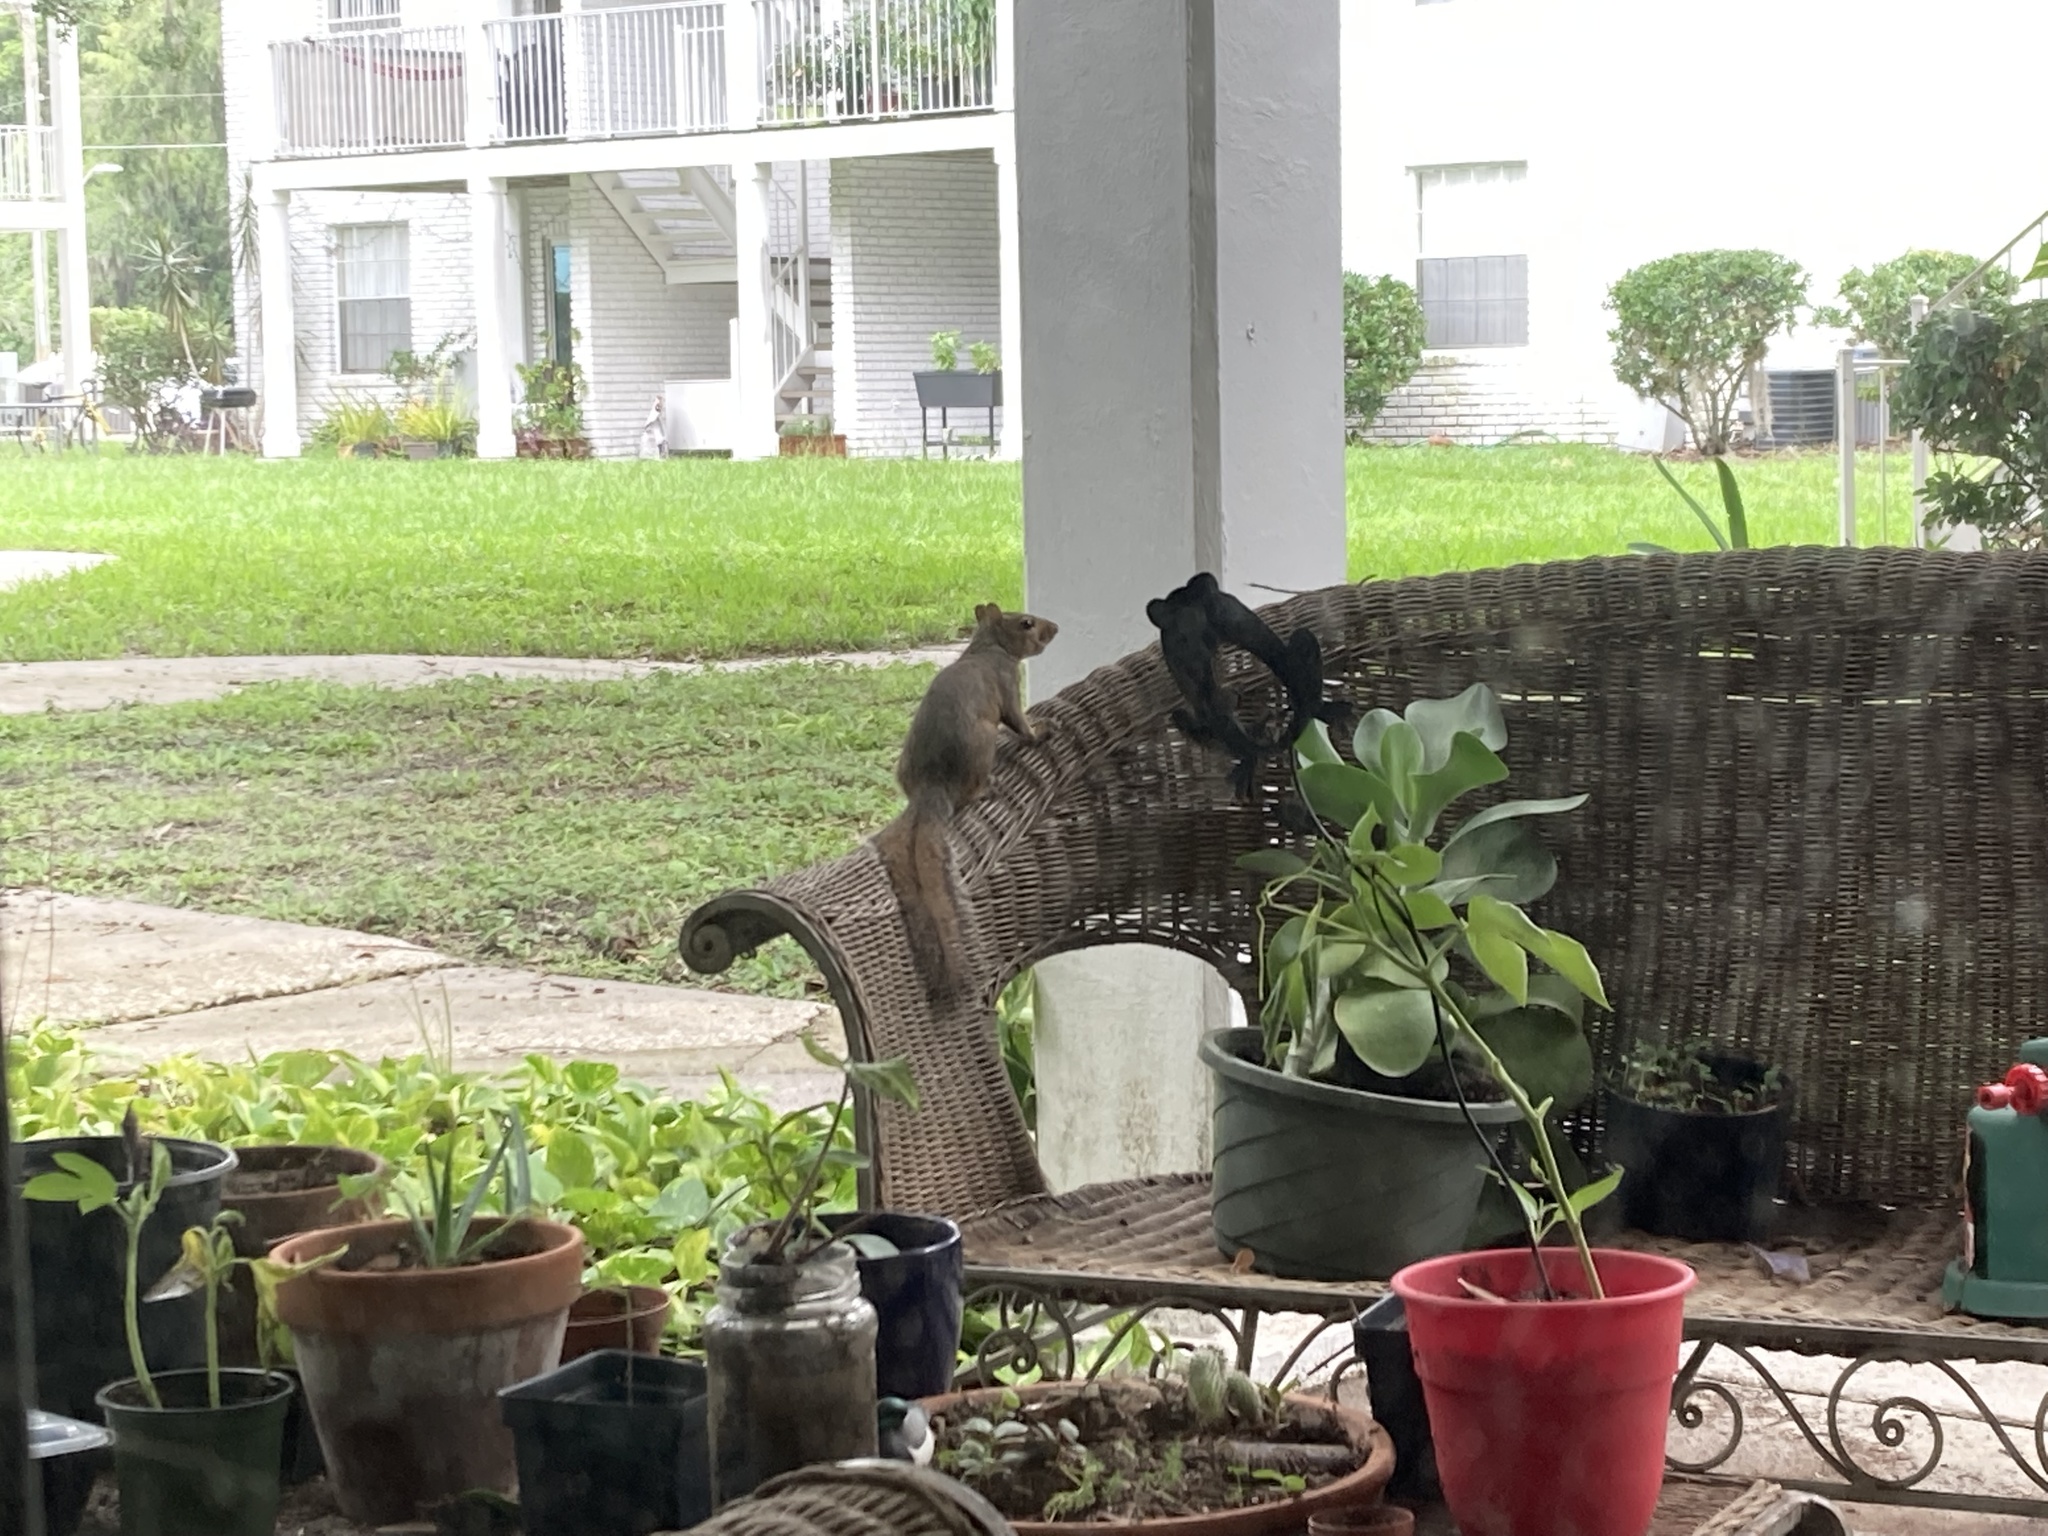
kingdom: Animalia
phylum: Chordata
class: Mammalia
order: Rodentia
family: Sciuridae
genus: Sciurus
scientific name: Sciurus carolinensis
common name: Eastern gray squirrel
